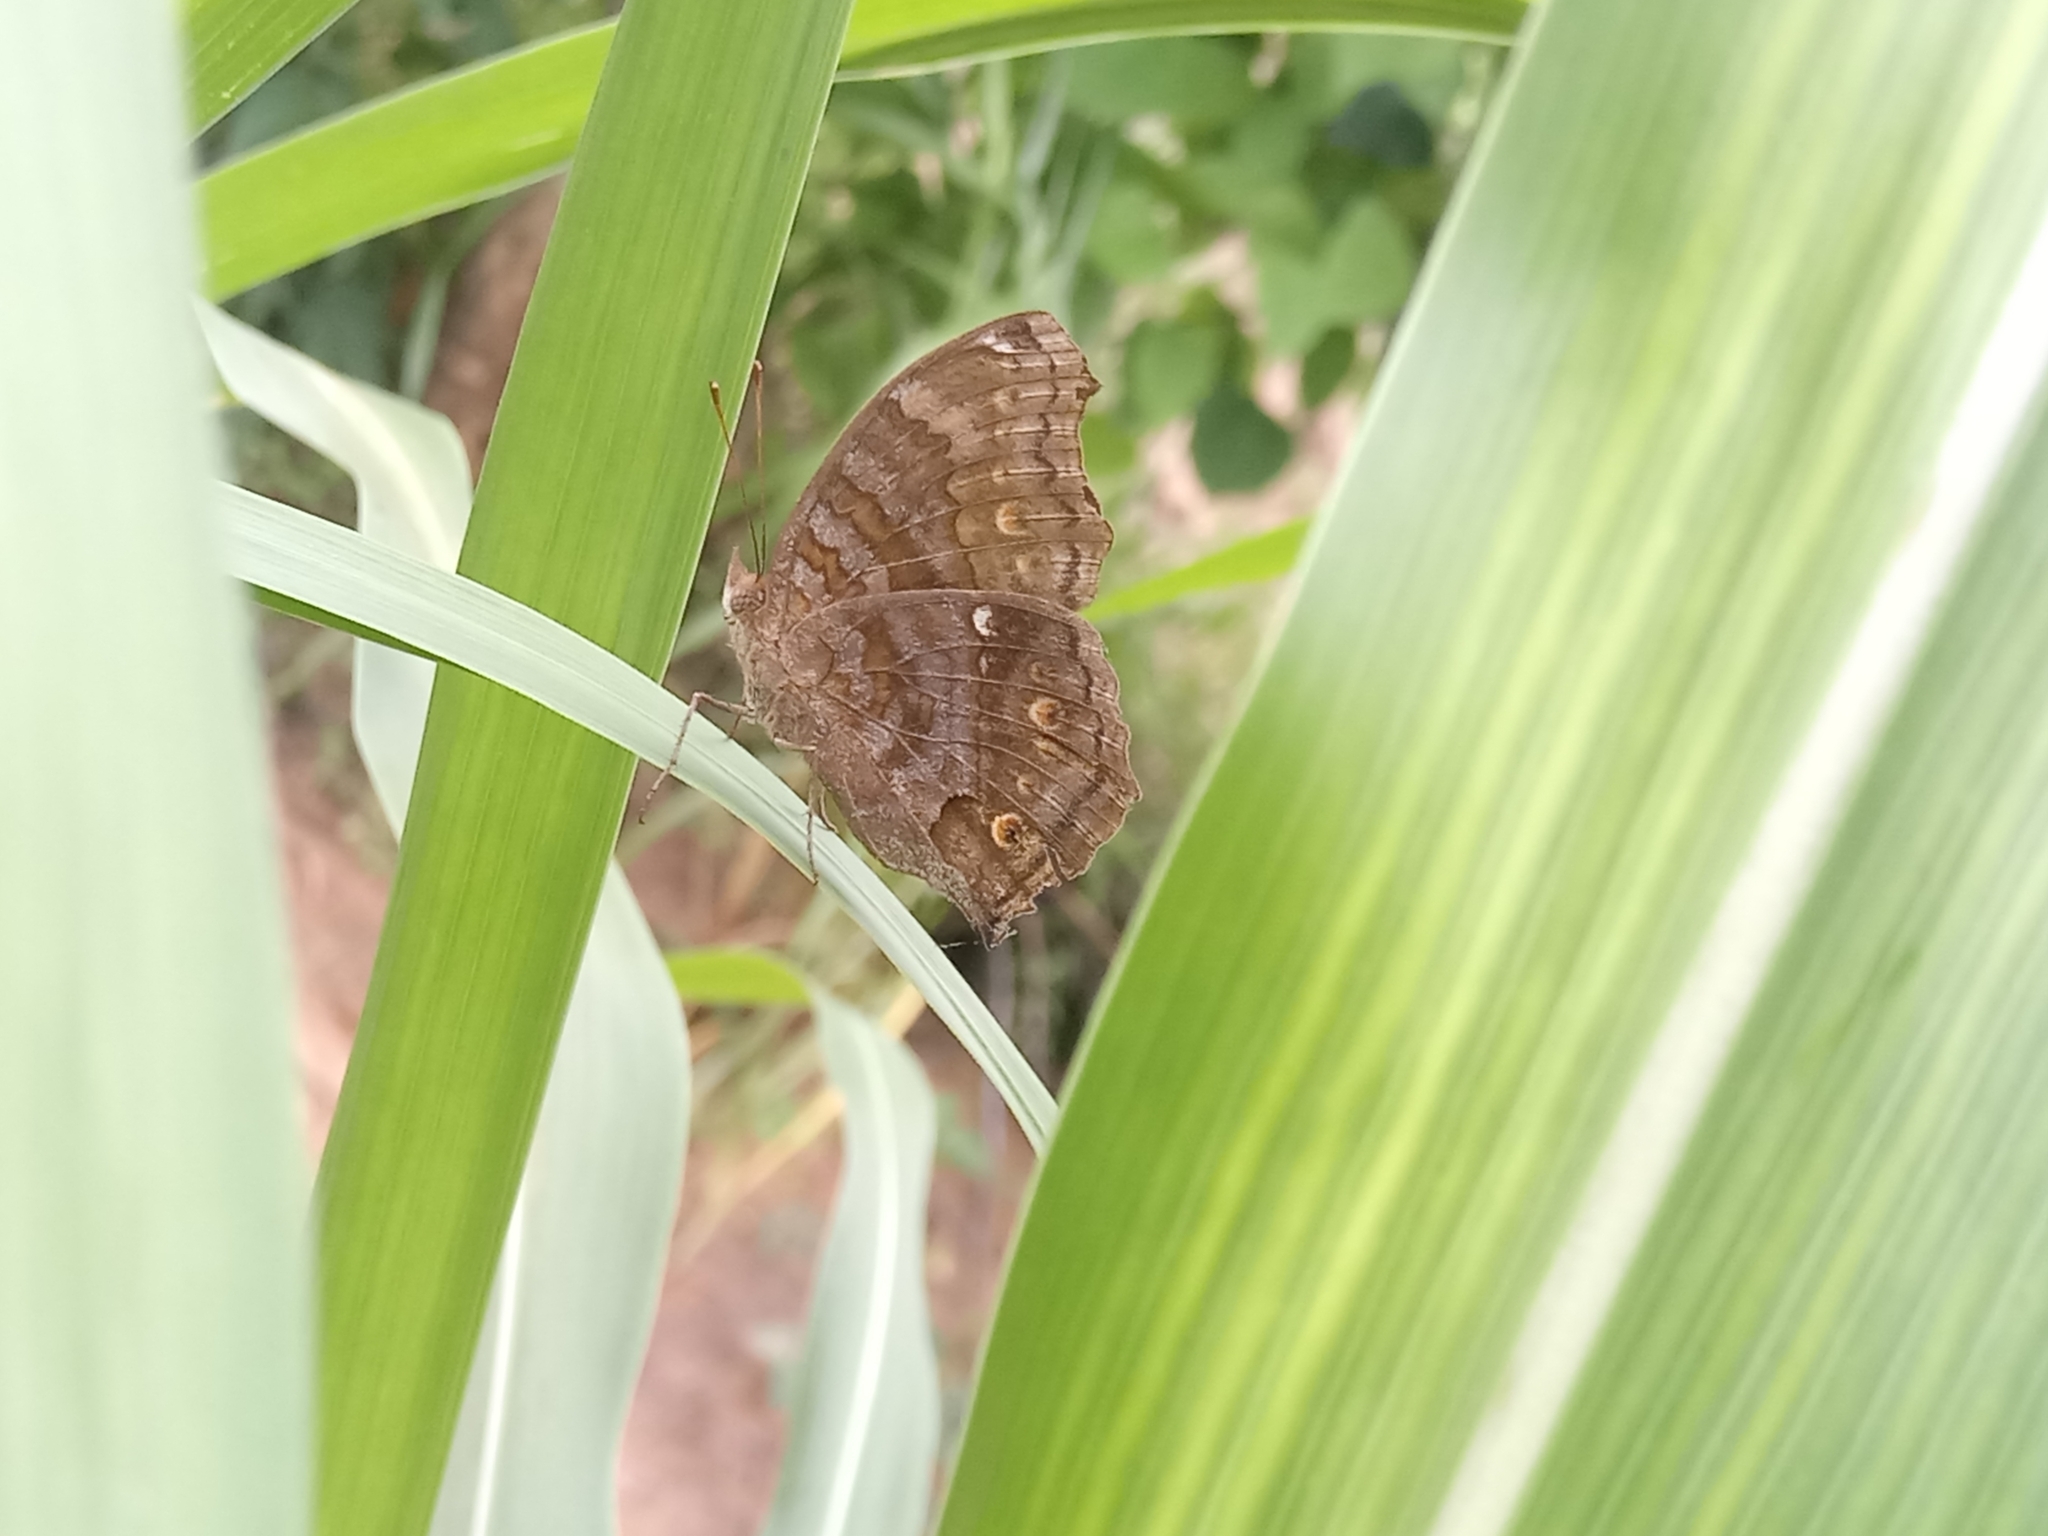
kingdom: Animalia
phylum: Arthropoda
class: Insecta
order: Lepidoptera
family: Nymphalidae
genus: Junonia
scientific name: Junonia chorimene
